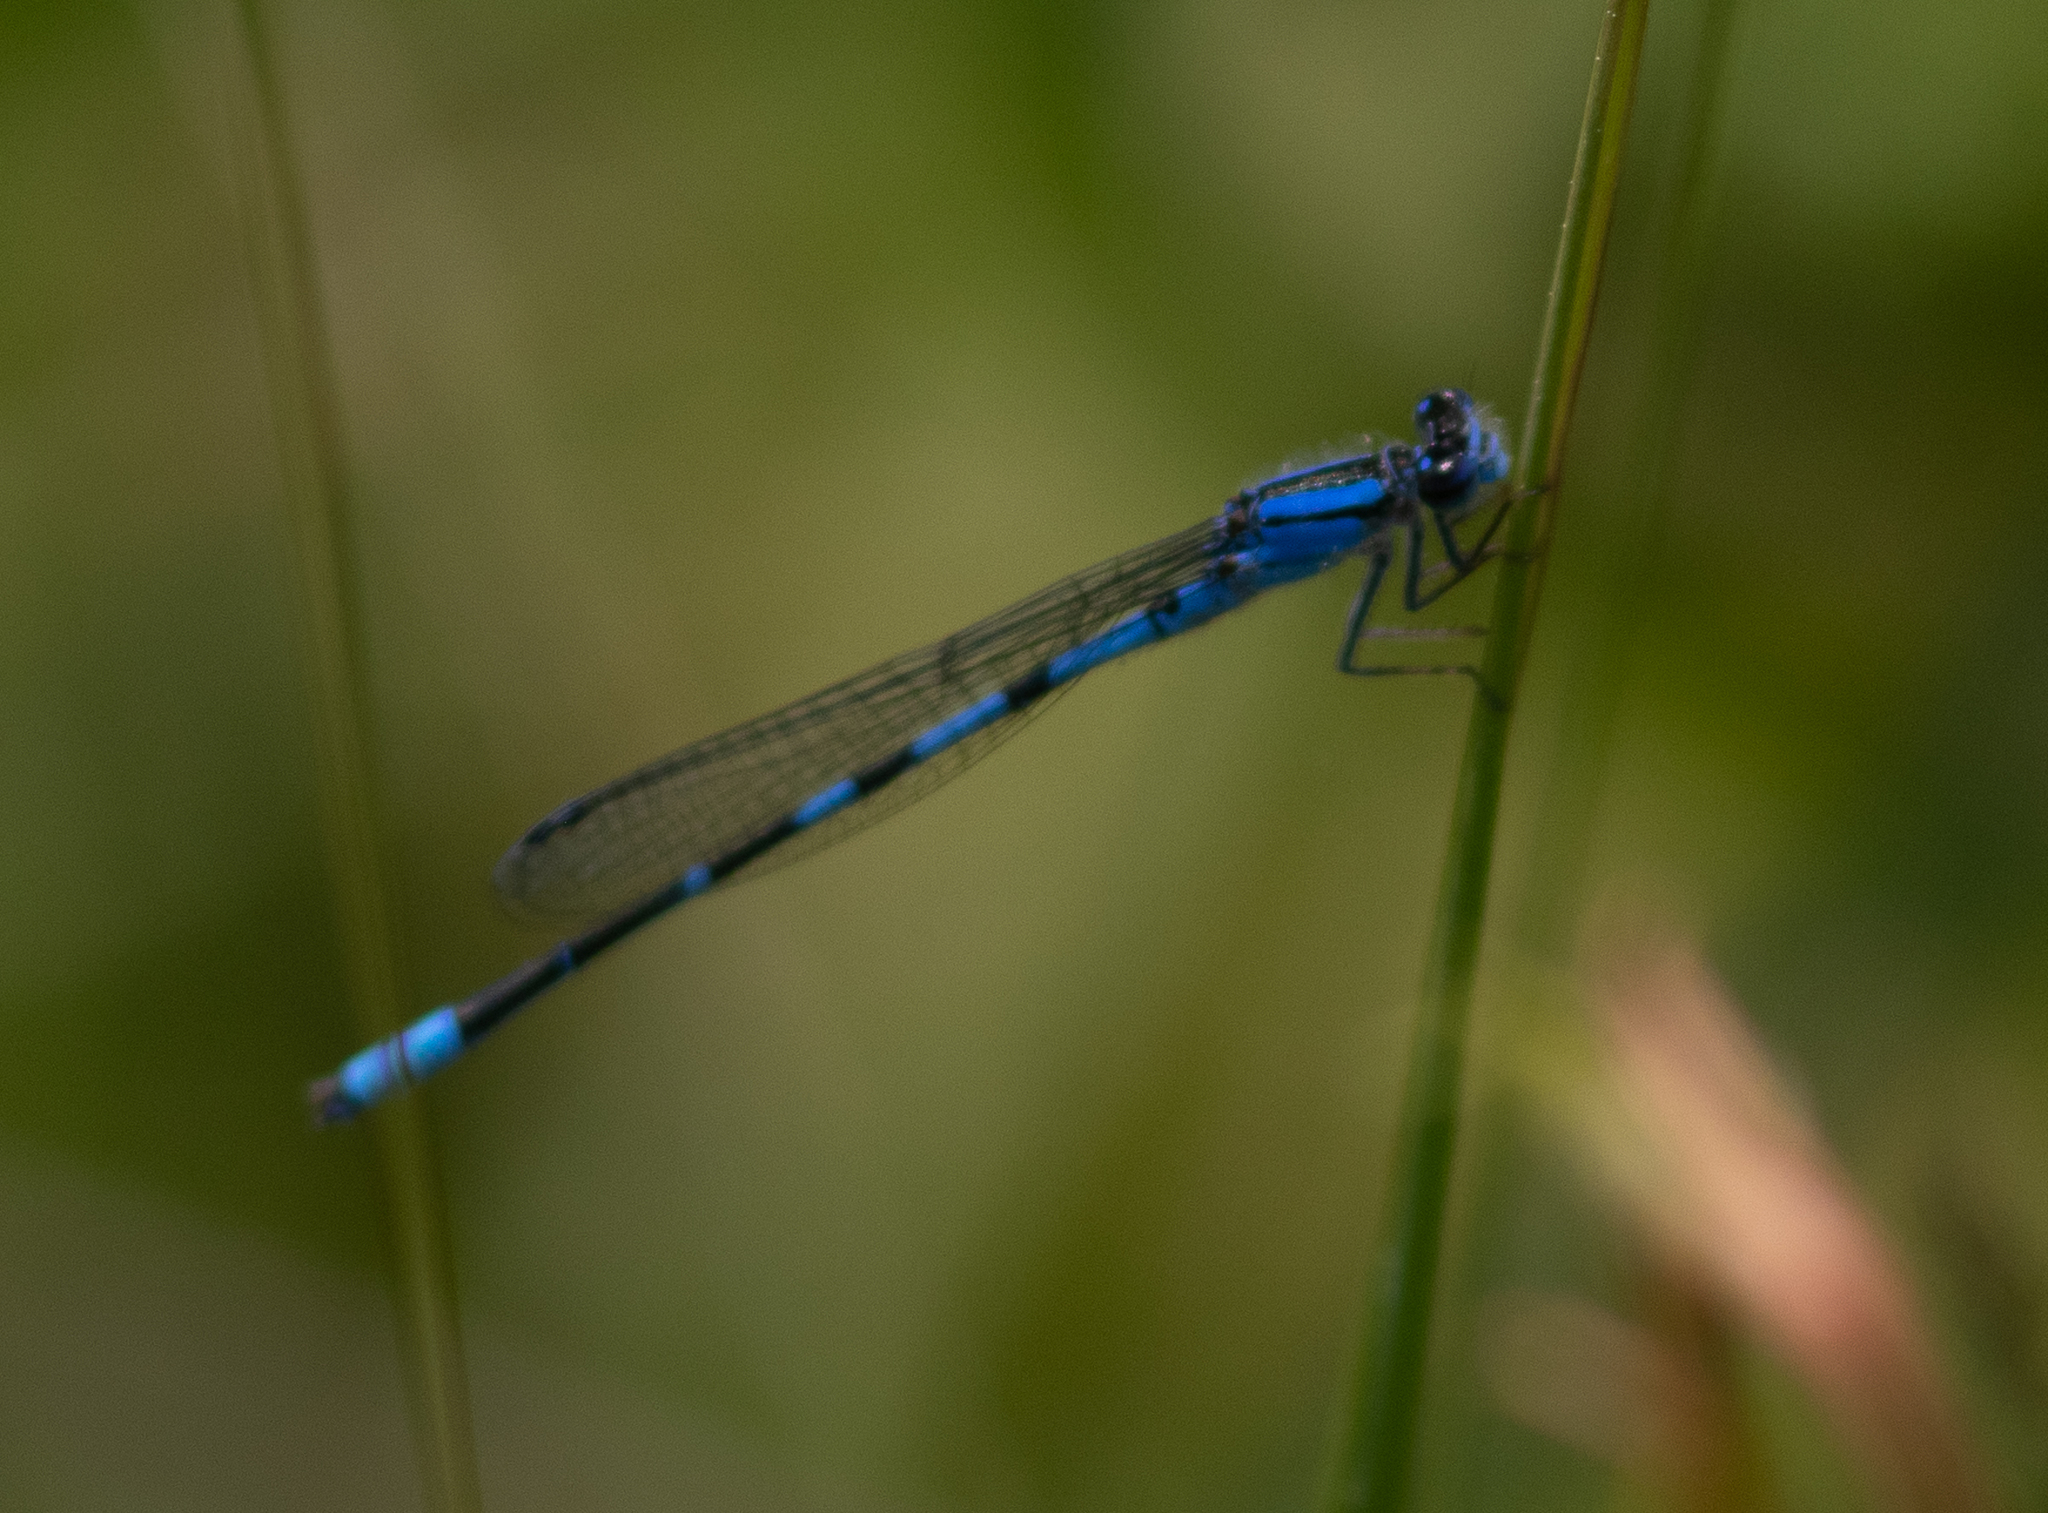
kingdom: Animalia
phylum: Arthropoda
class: Insecta
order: Odonata
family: Coenagrionidae
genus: Enallagma
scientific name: Enallagma minusculum
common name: Little bluet
